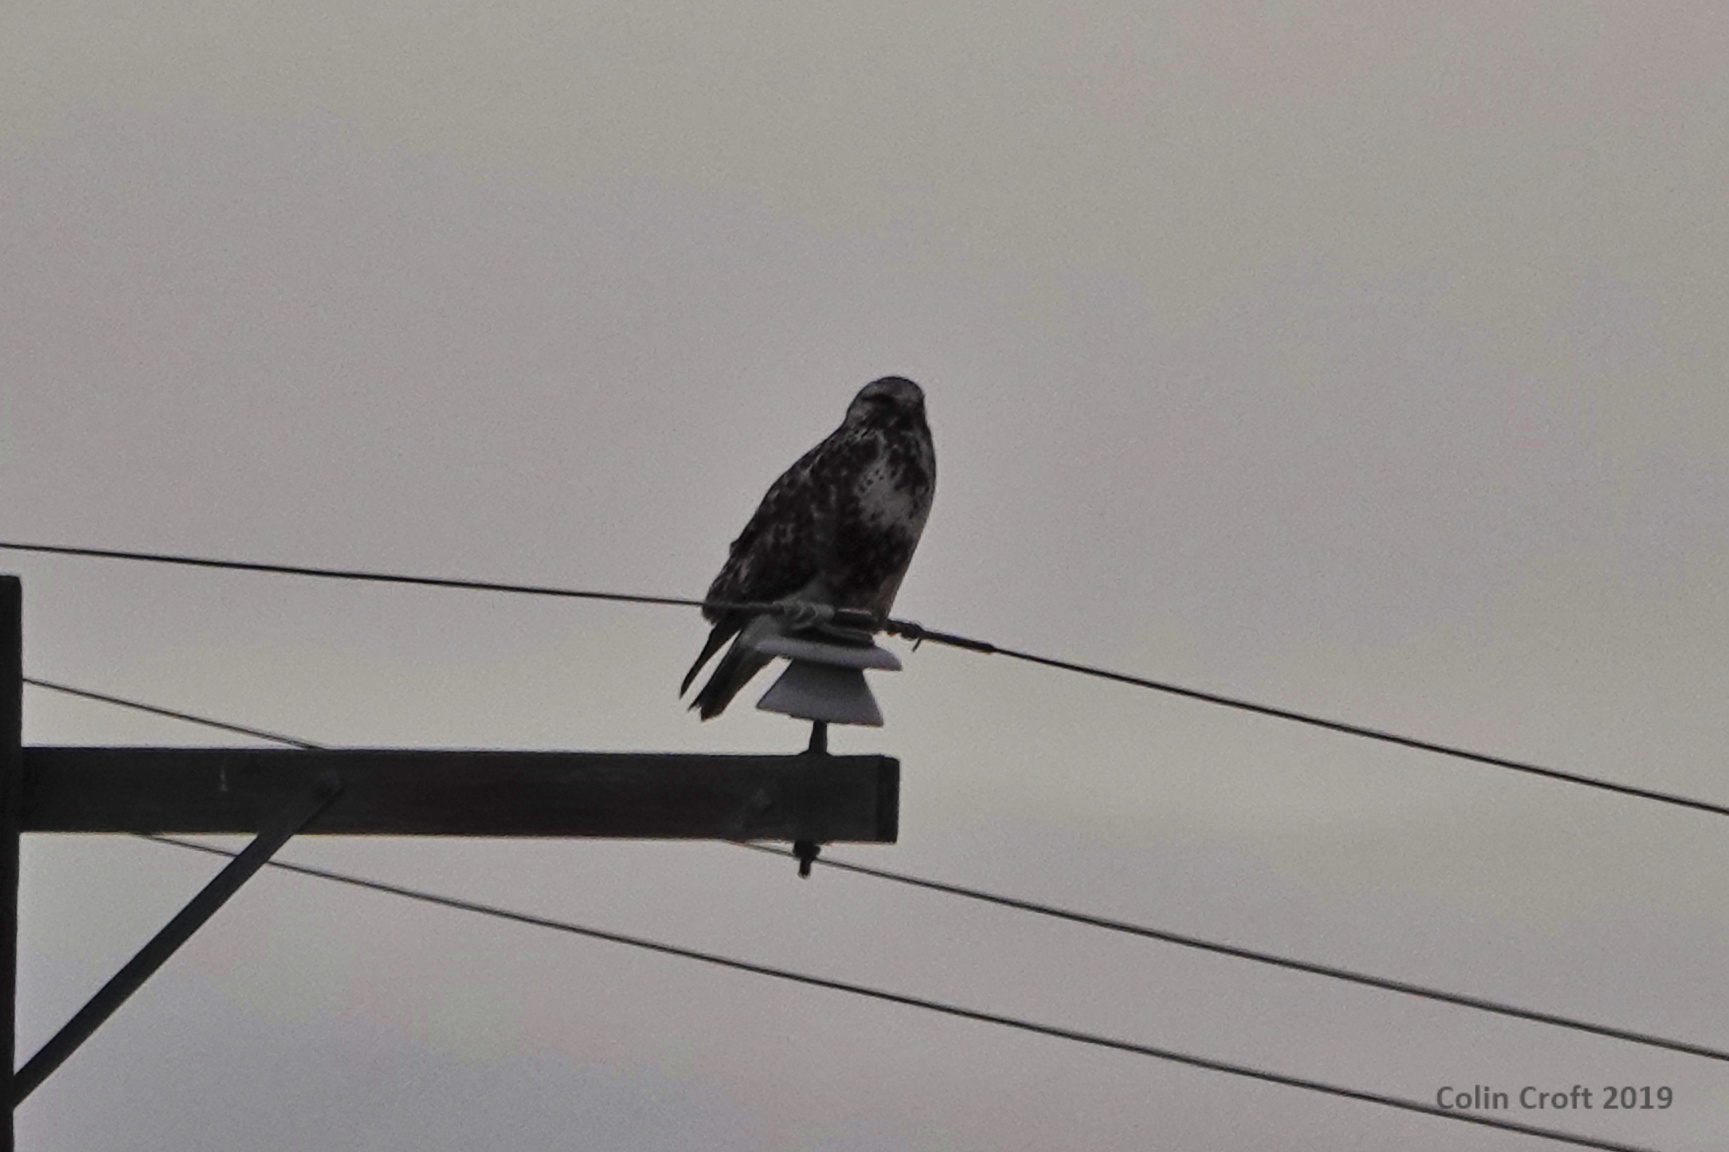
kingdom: Animalia
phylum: Chordata
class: Aves
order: Accipitriformes
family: Accipitridae
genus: Buteo
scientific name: Buteo lagopus
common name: Rough-legged buzzard
